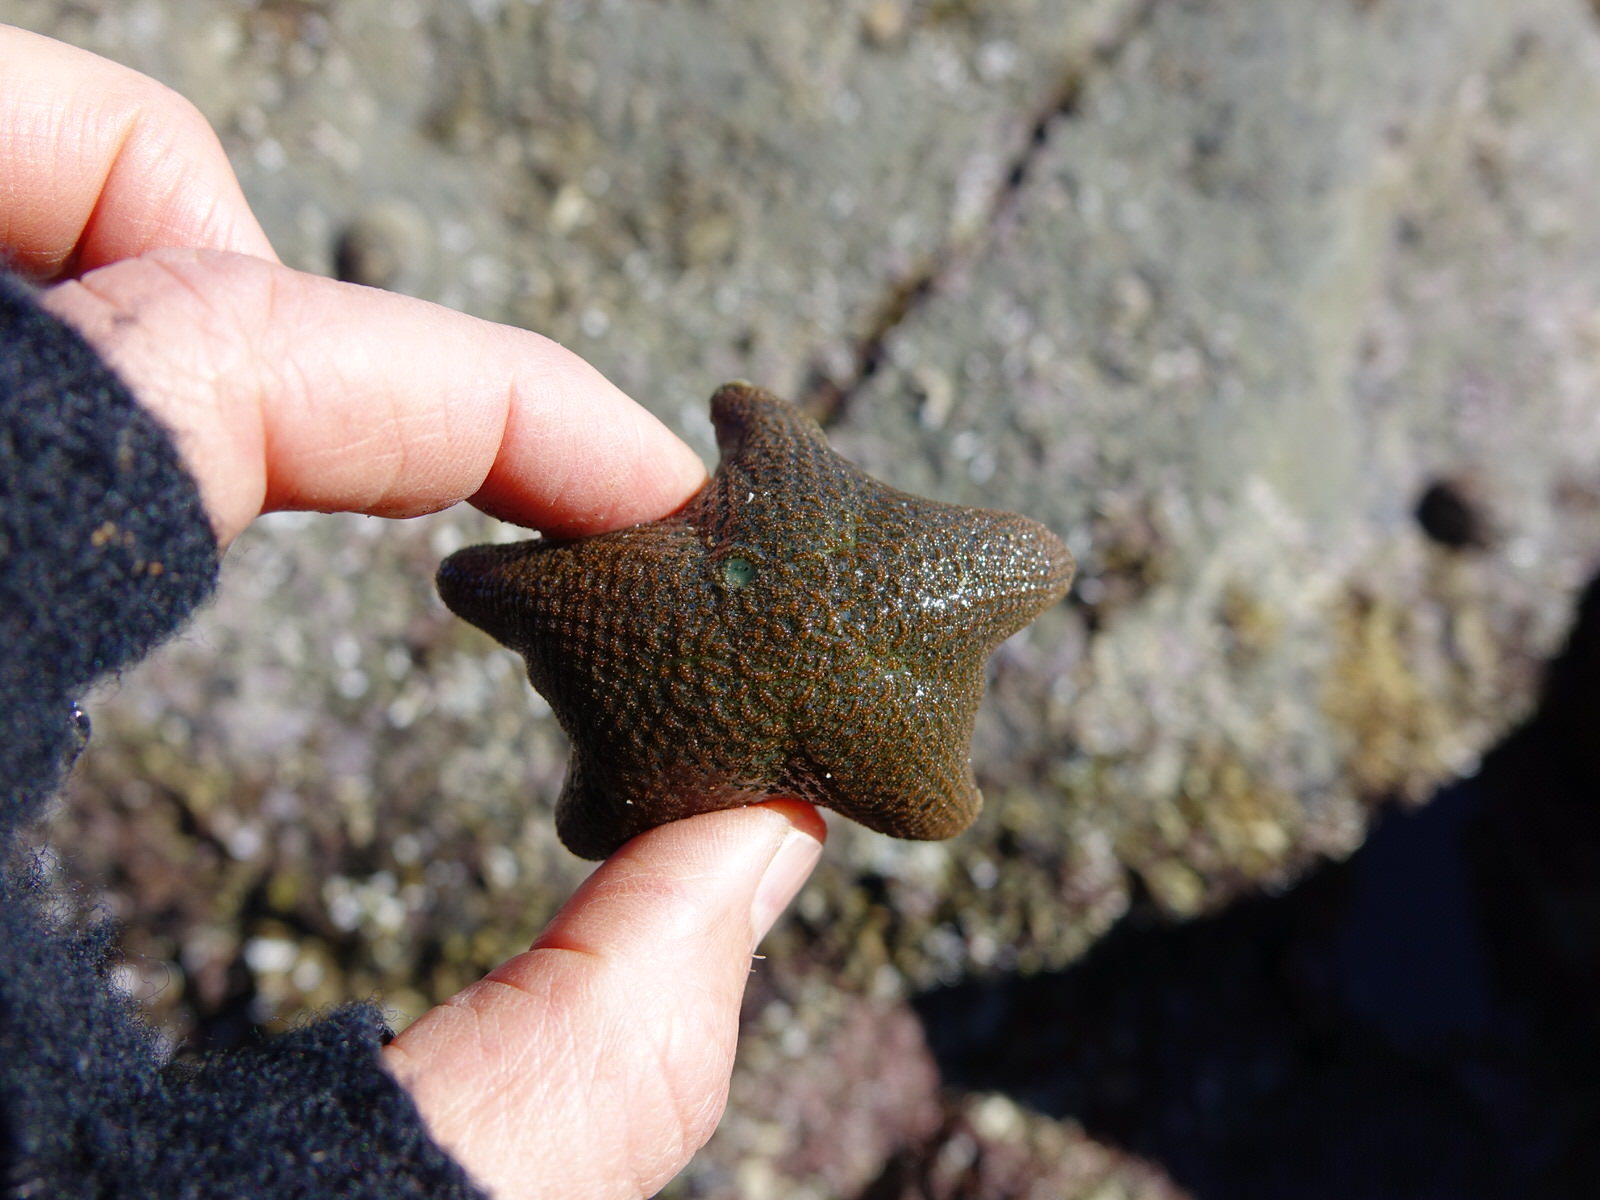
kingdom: Animalia
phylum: Echinodermata
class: Asteroidea
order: Valvatida
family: Asterinidae
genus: Patiriella
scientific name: Patiriella regularis
